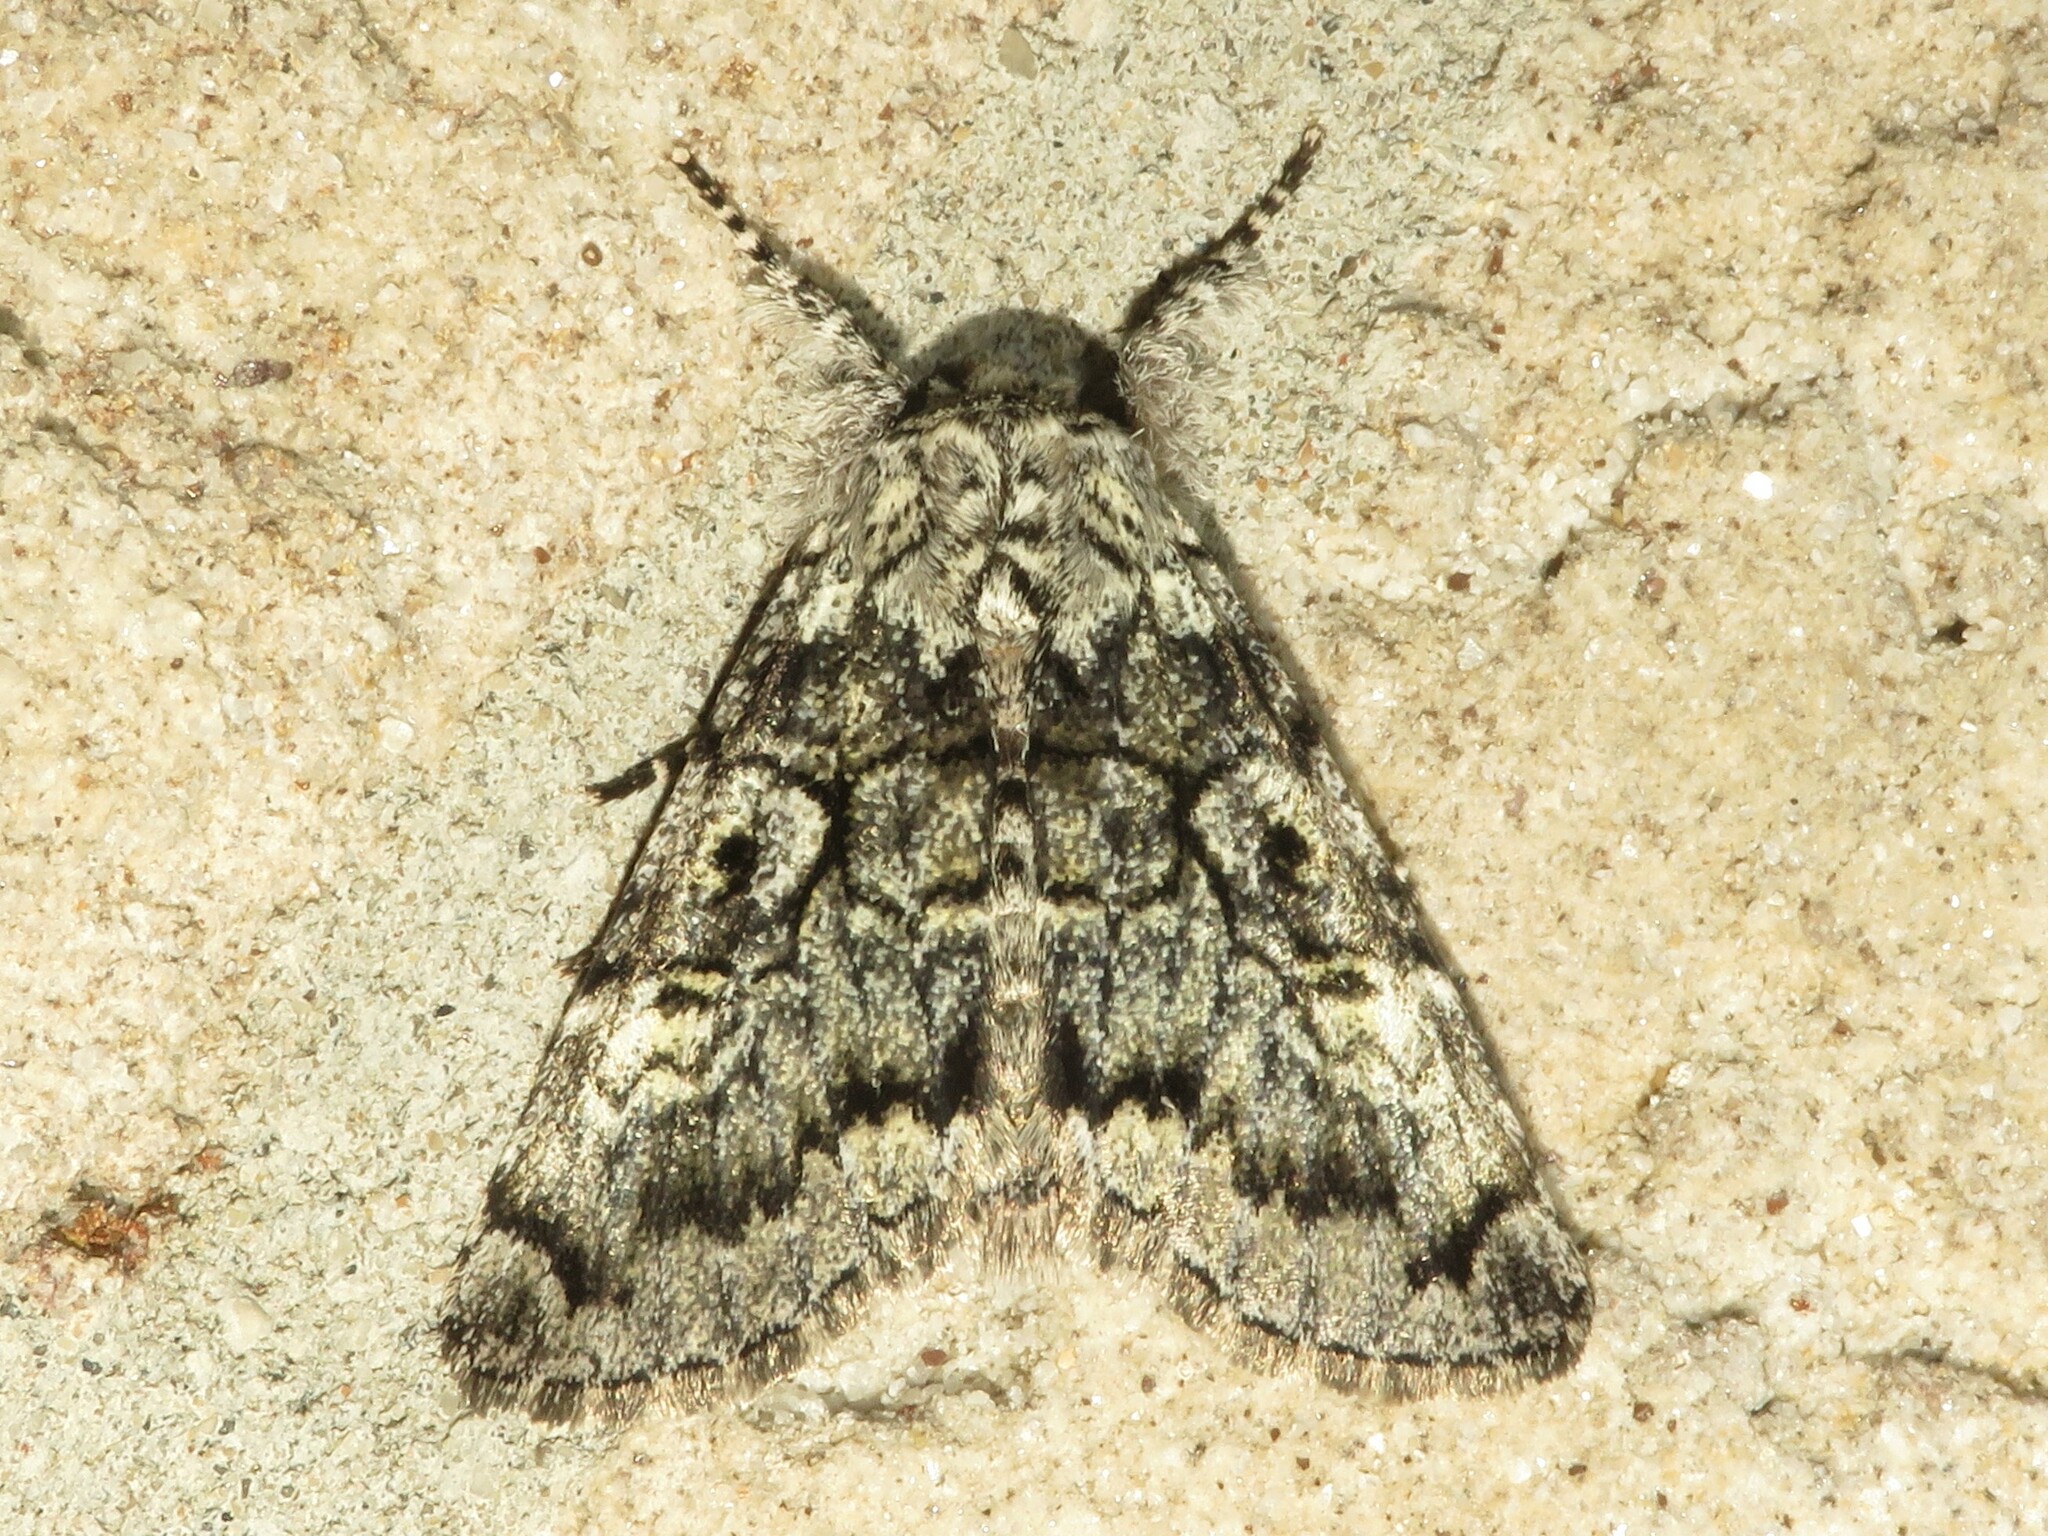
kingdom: Animalia
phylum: Arthropoda
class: Insecta
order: Lepidoptera
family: Noctuidae
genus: Charadra
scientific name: Charadra deridens
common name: Marbled tuffet
